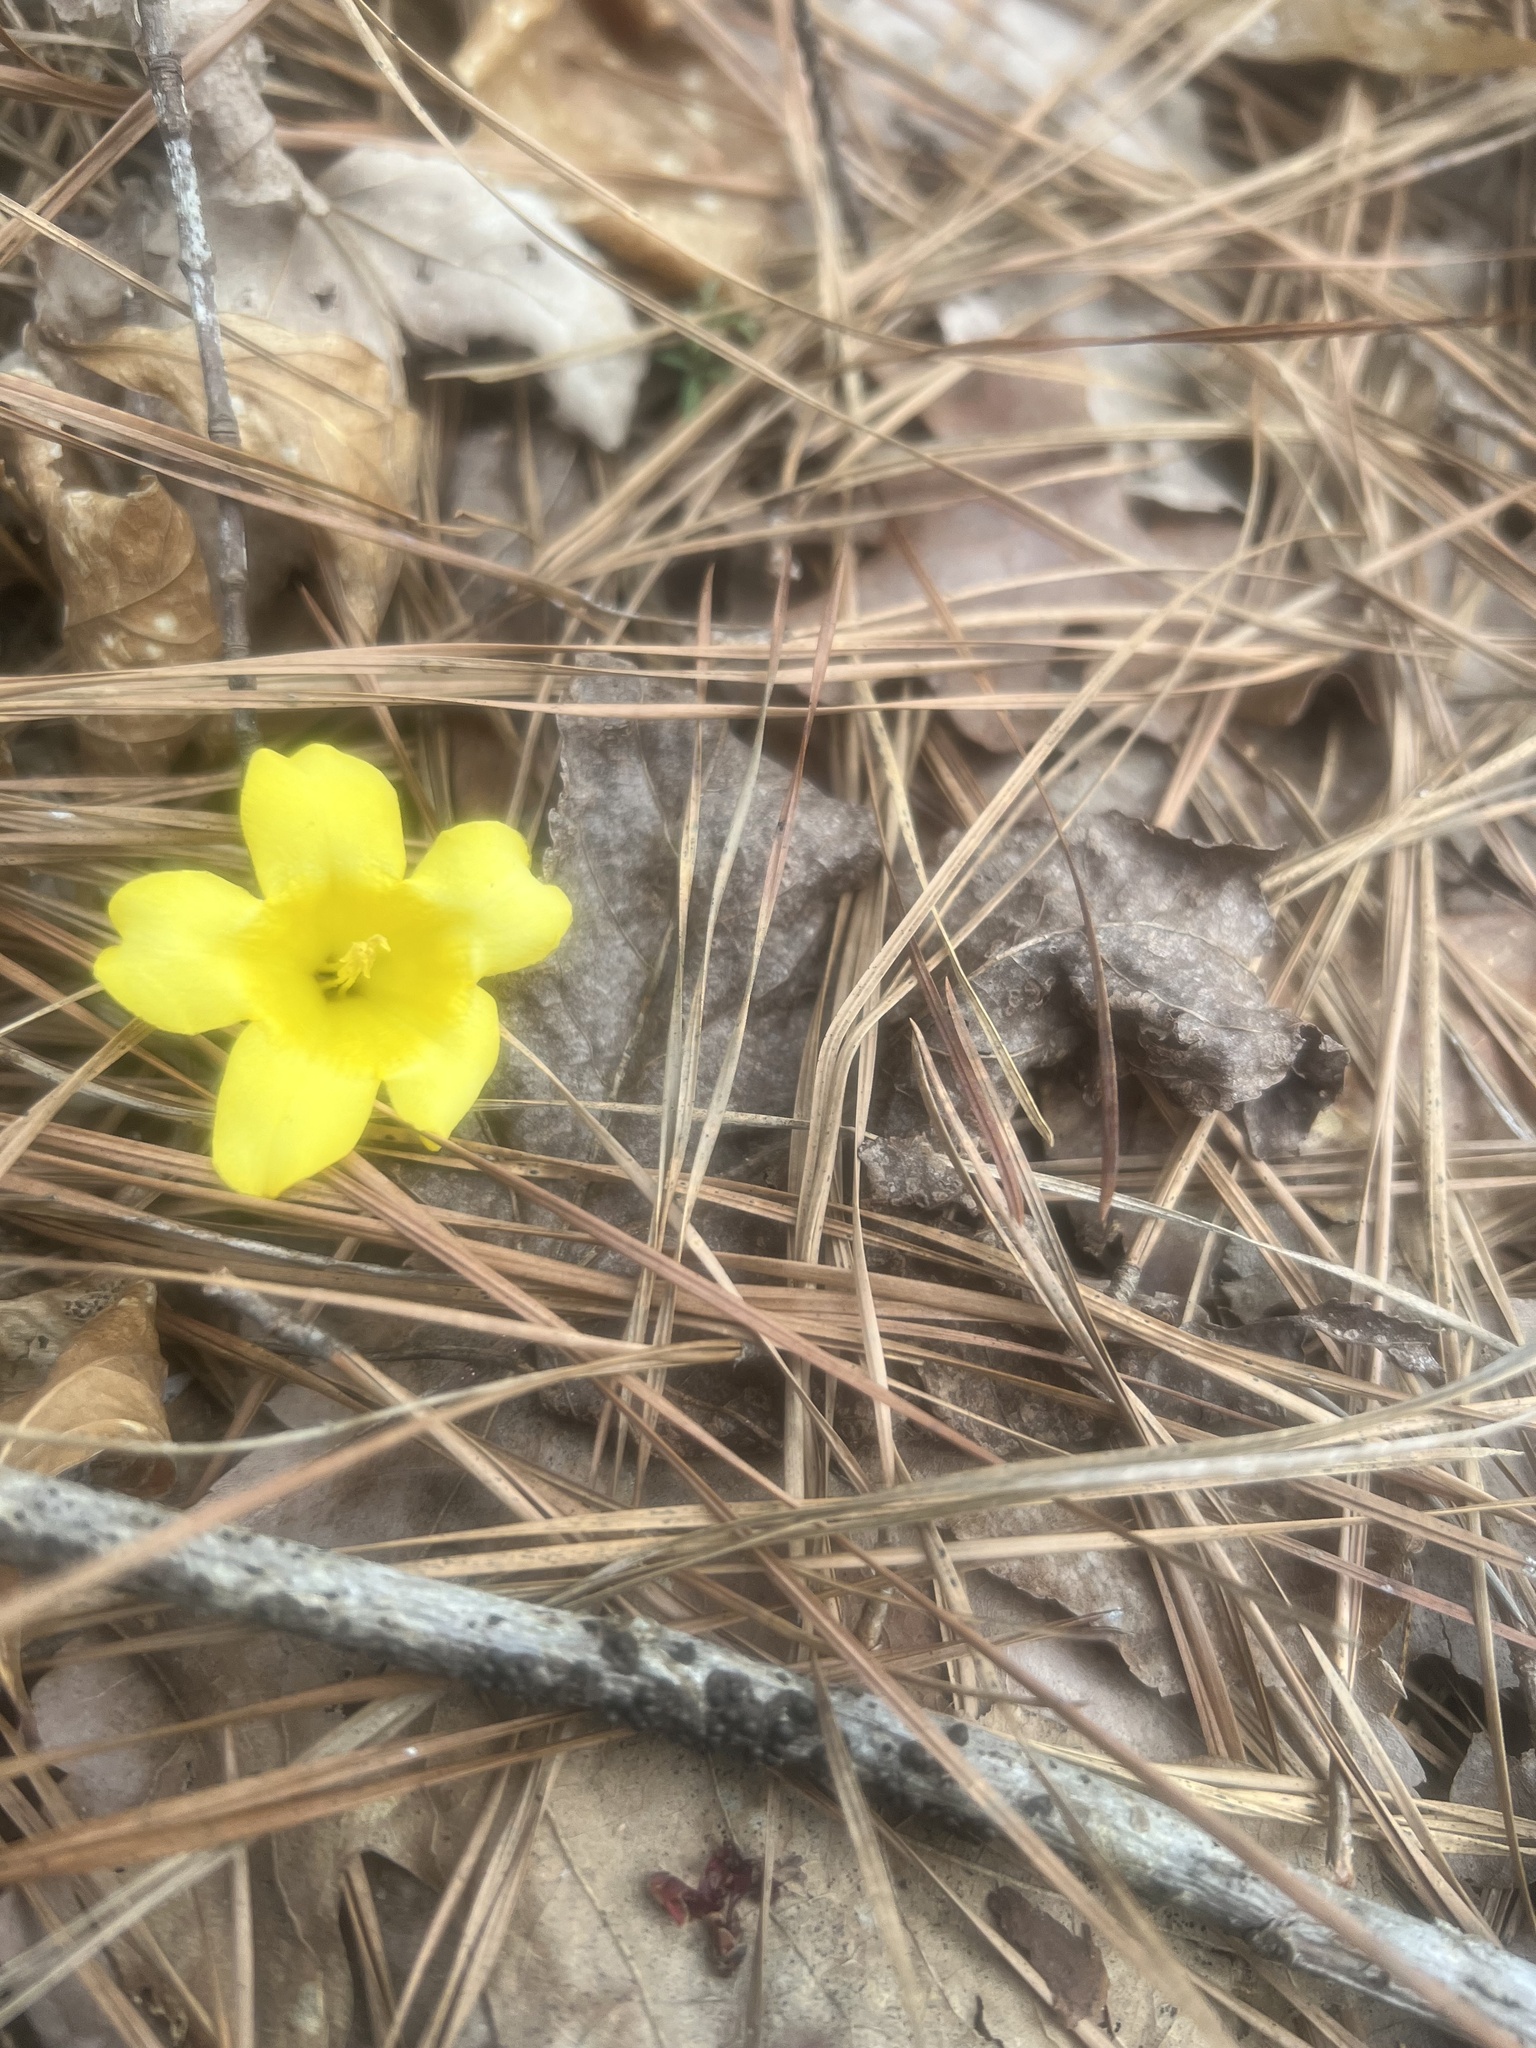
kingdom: Plantae
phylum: Tracheophyta
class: Magnoliopsida
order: Gentianales
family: Gelsemiaceae
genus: Gelsemium
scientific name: Gelsemium sempervirens
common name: Carolina-jasmine
